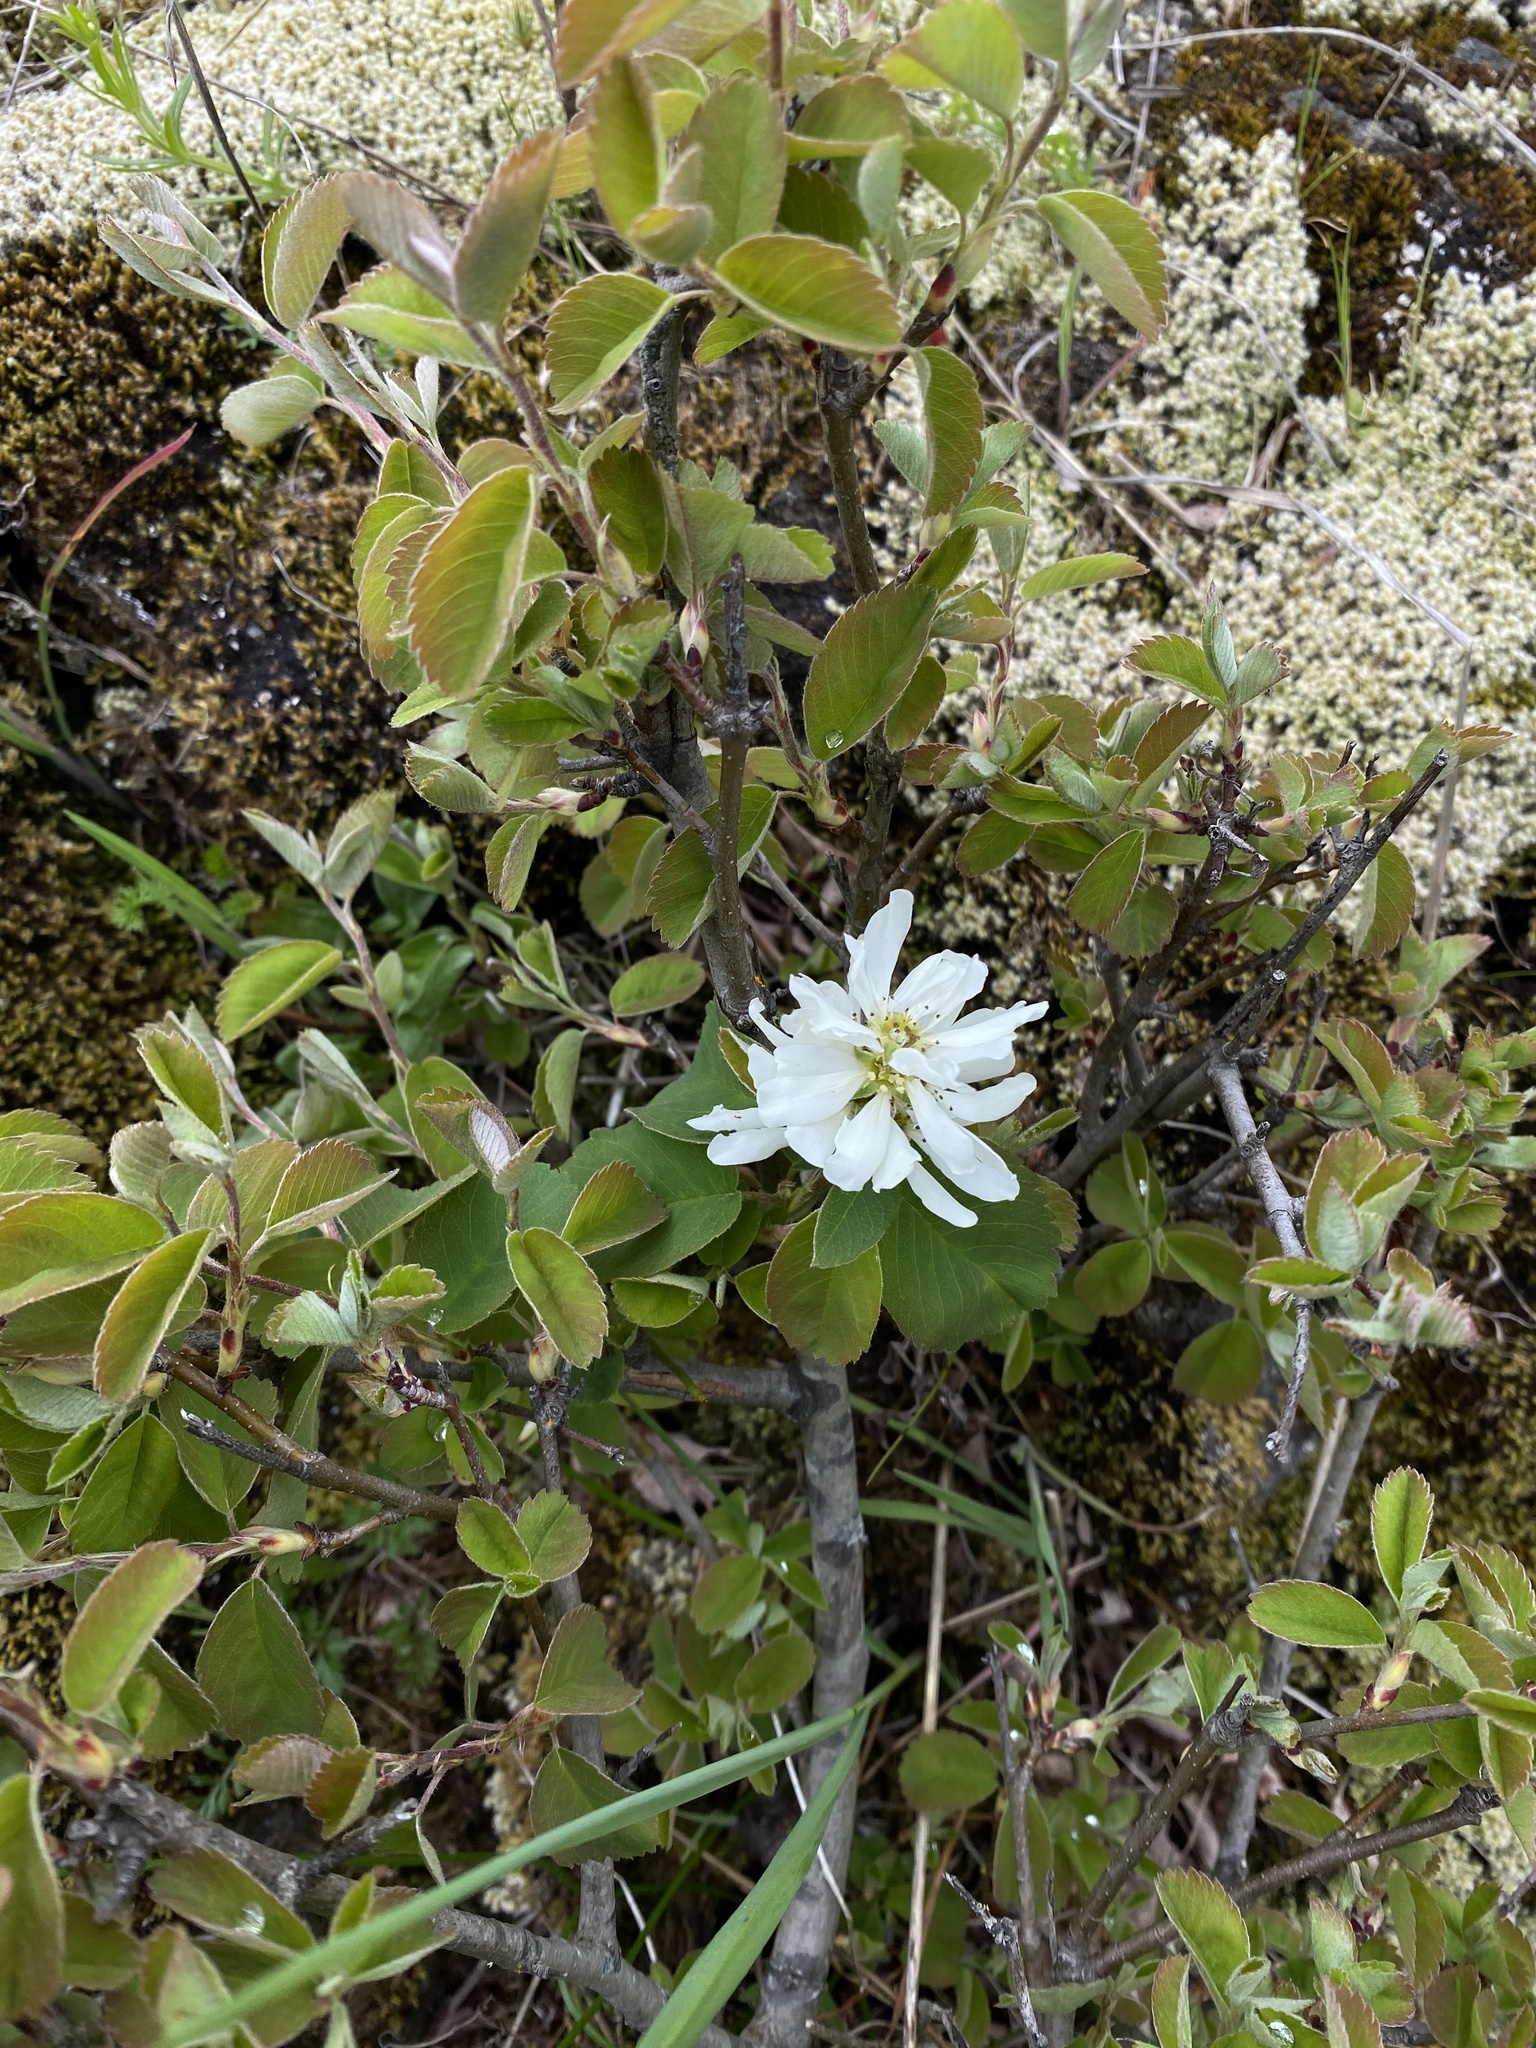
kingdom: Plantae
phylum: Tracheophyta
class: Magnoliopsida
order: Rosales
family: Rosaceae
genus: Amelanchier
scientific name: Amelanchier alnifolia
